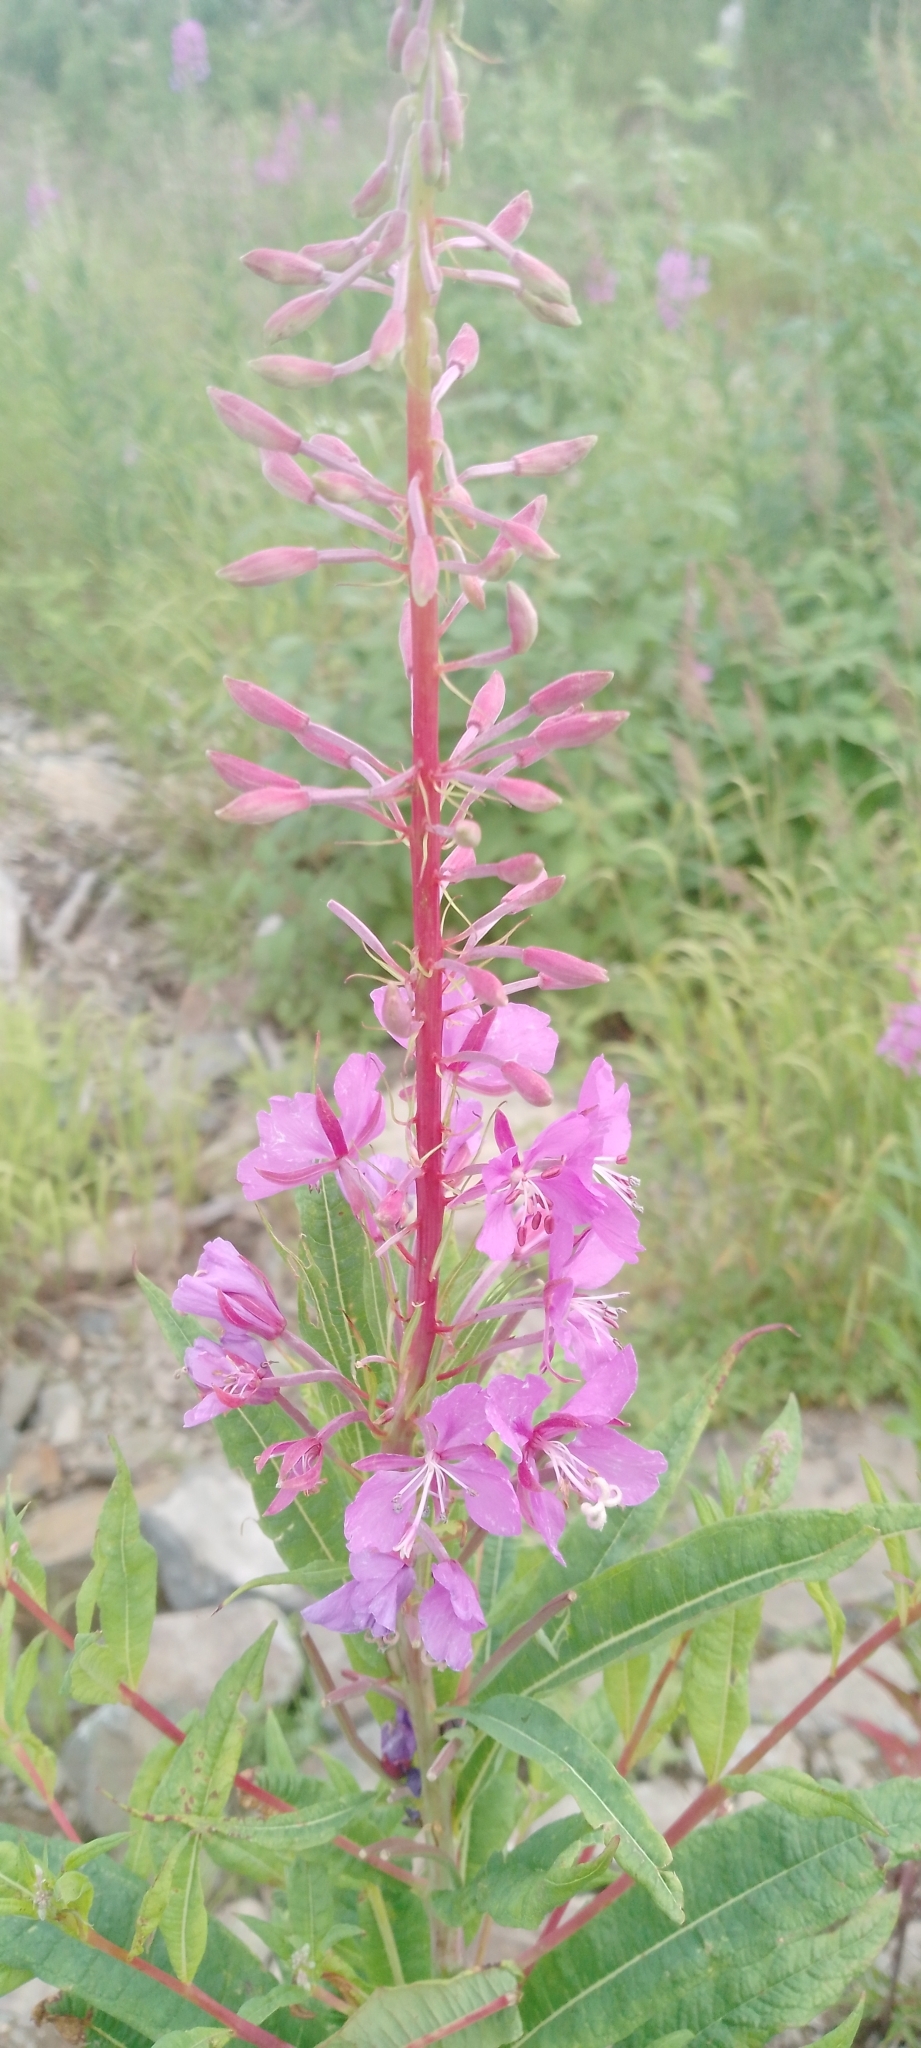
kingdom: Plantae
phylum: Tracheophyta
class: Magnoliopsida
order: Myrtales
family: Onagraceae
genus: Chamaenerion
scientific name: Chamaenerion angustifolium
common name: Fireweed
